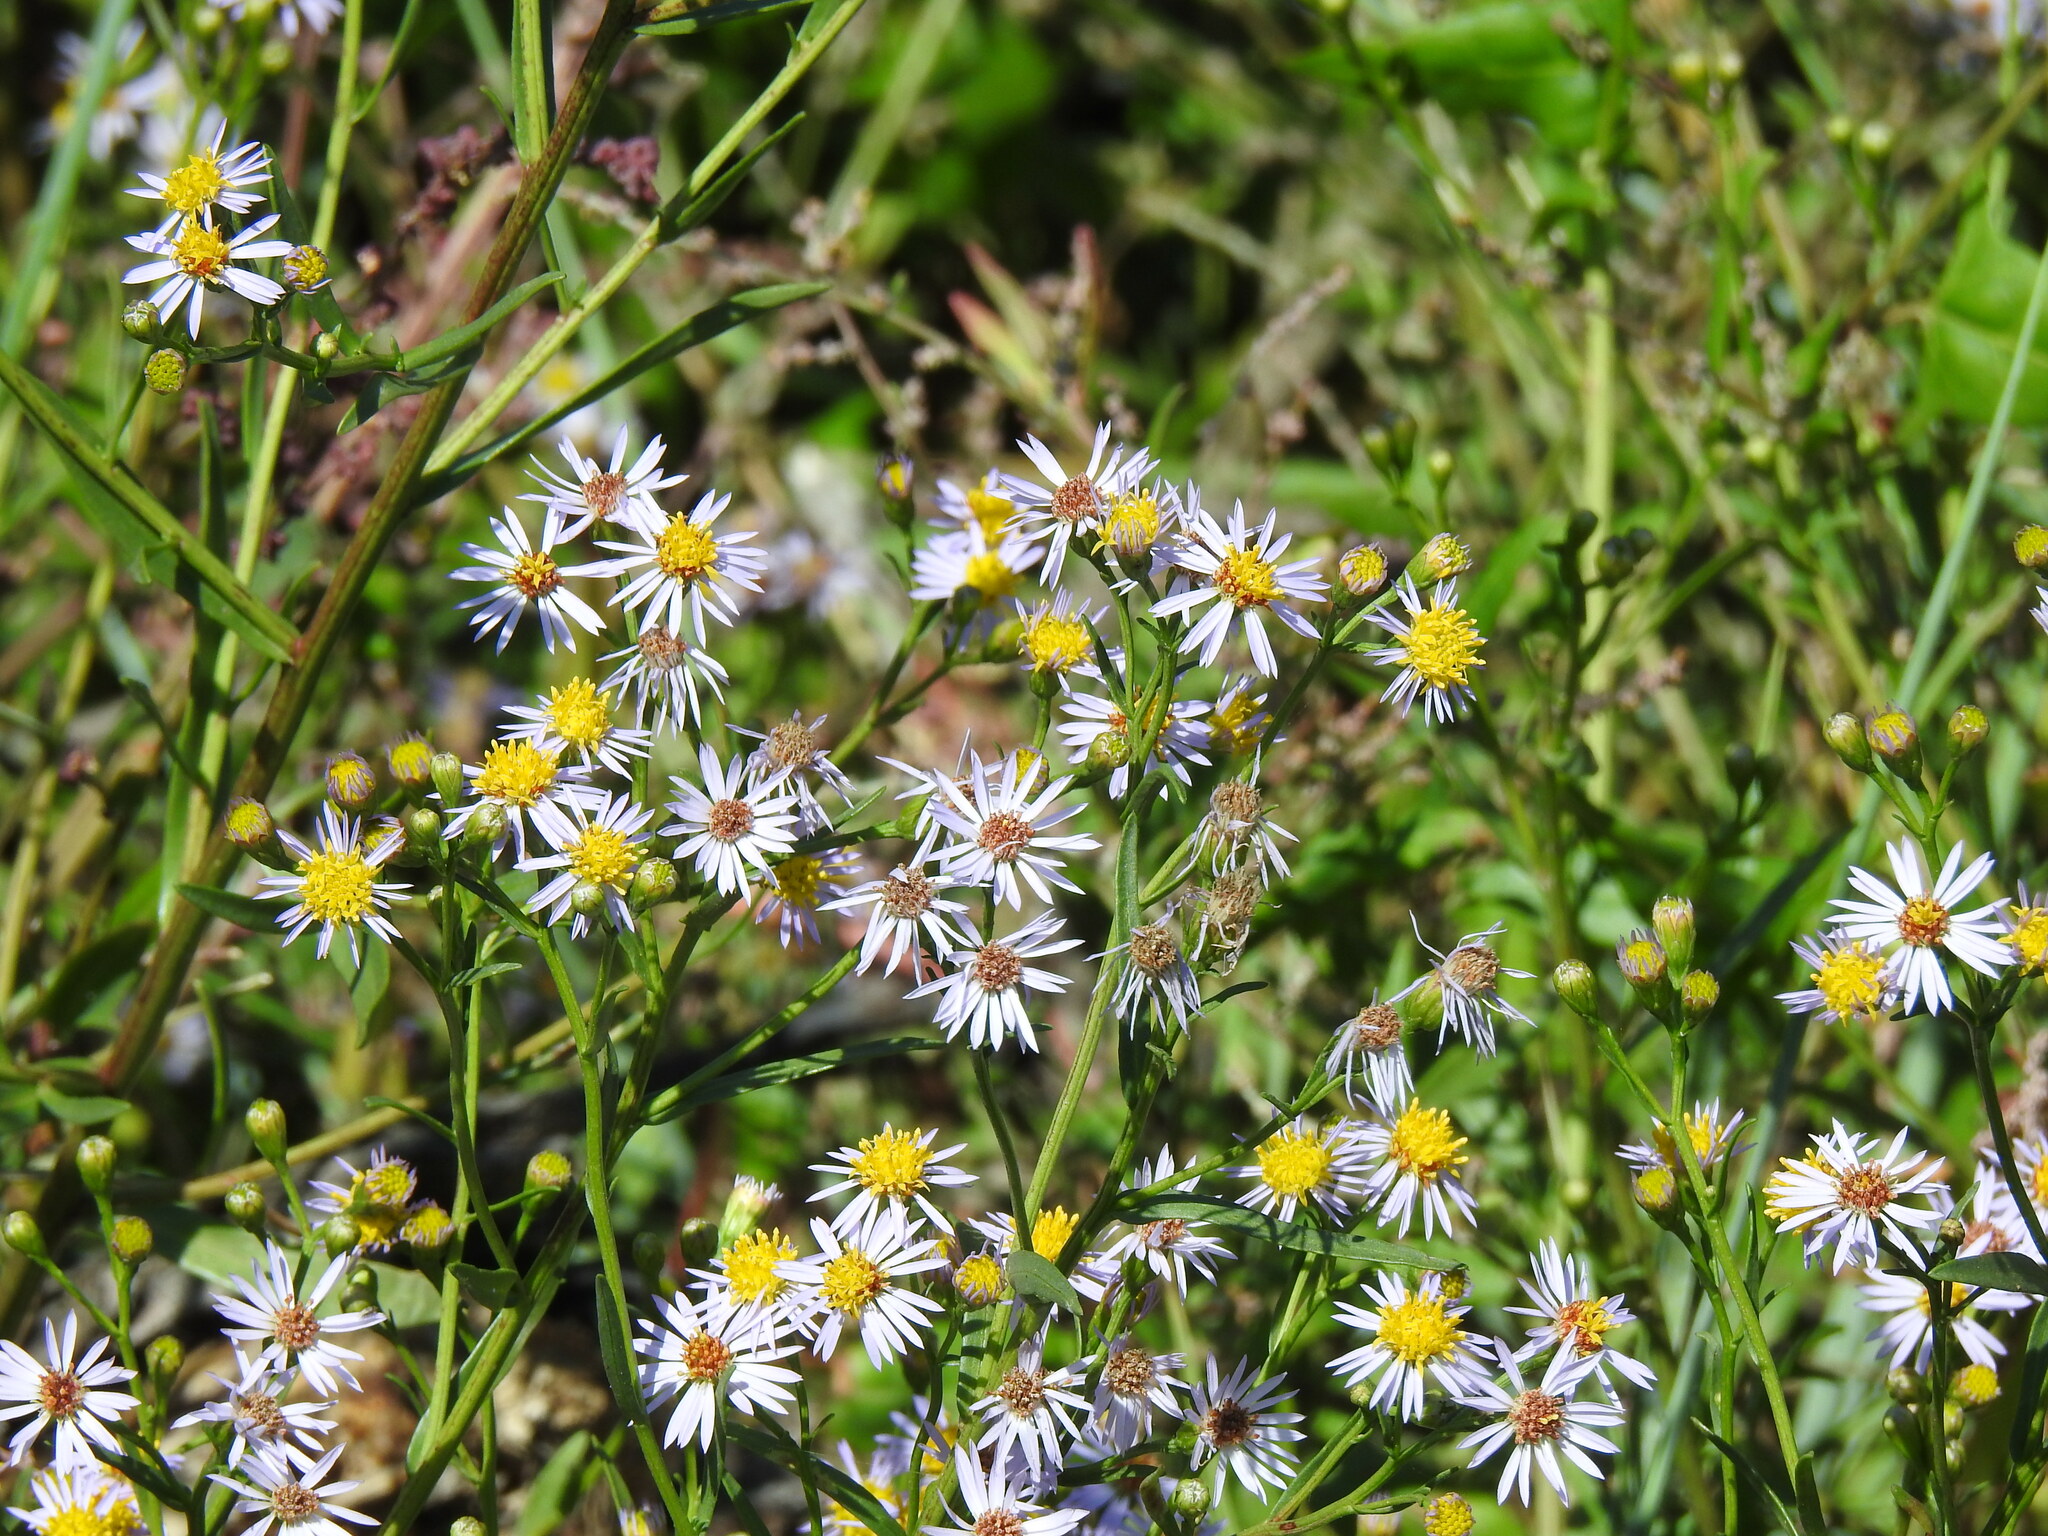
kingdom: Plantae
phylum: Tracheophyta
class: Magnoliopsida
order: Asterales
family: Asteraceae
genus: Tripolium
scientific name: Tripolium pannonicum
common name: Sea aster
